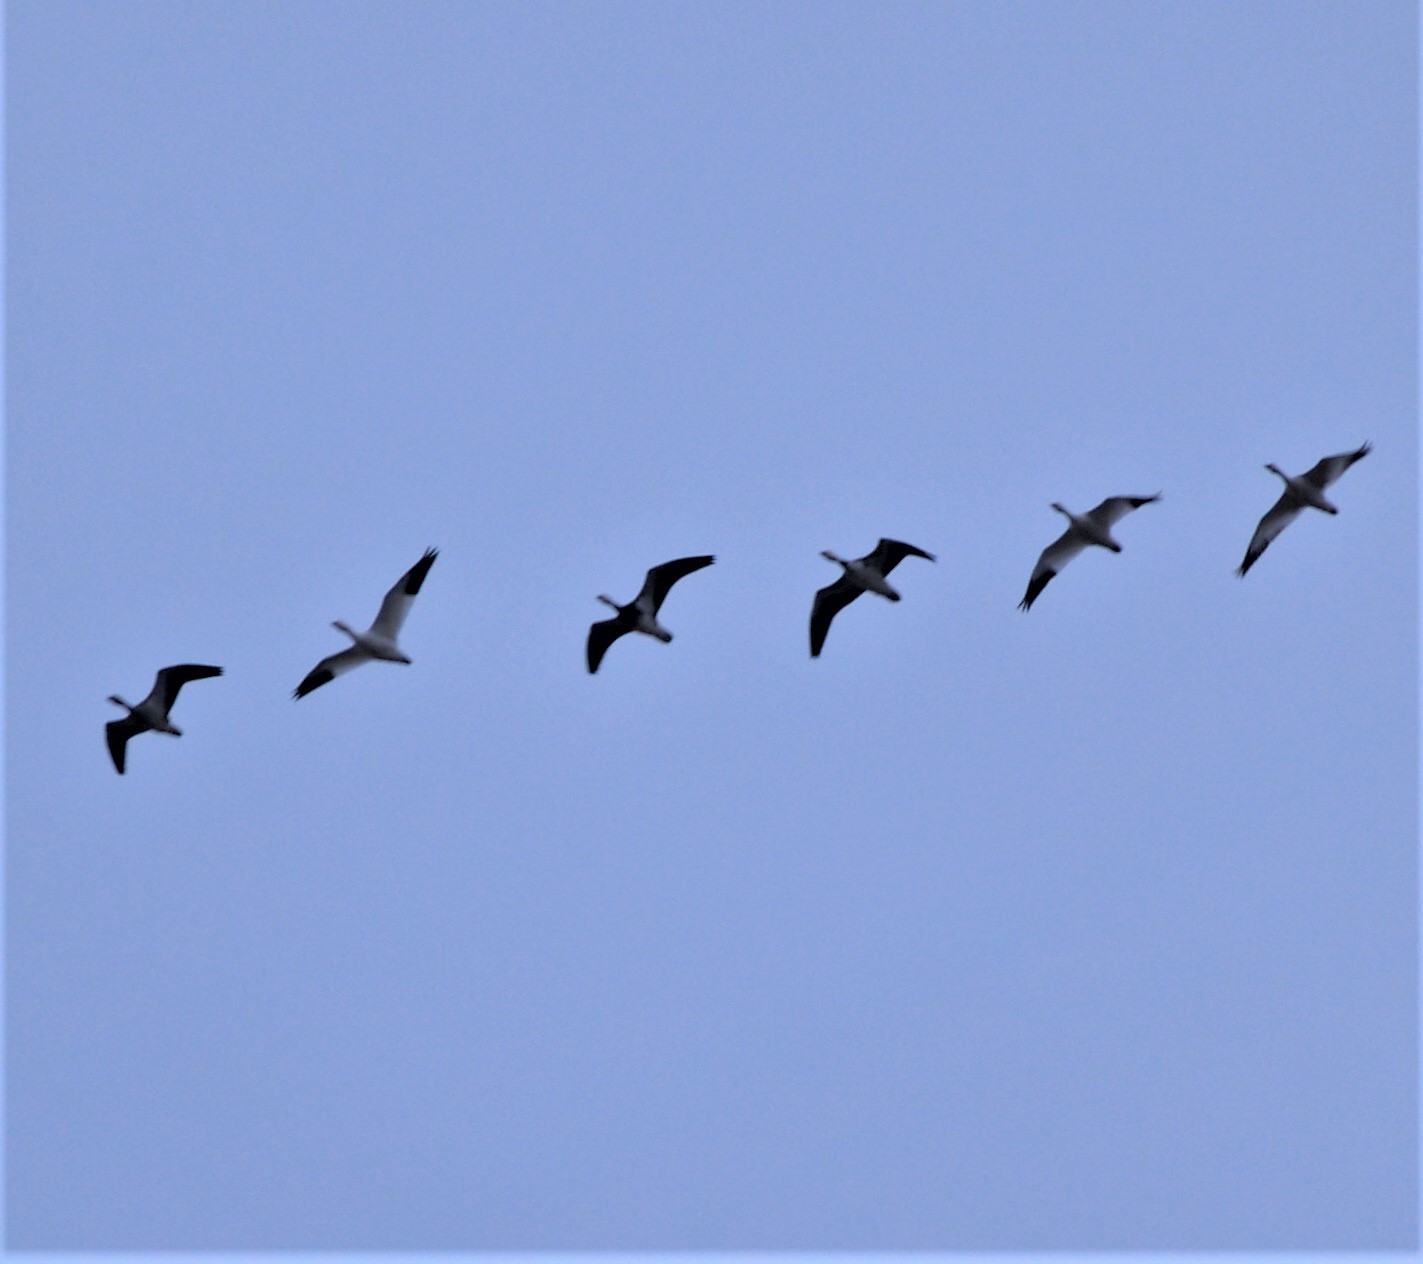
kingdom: Animalia
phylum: Chordata
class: Aves
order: Anseriformes
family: Anatidae
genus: Anser
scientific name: Anser caerulescens
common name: Snow goose
